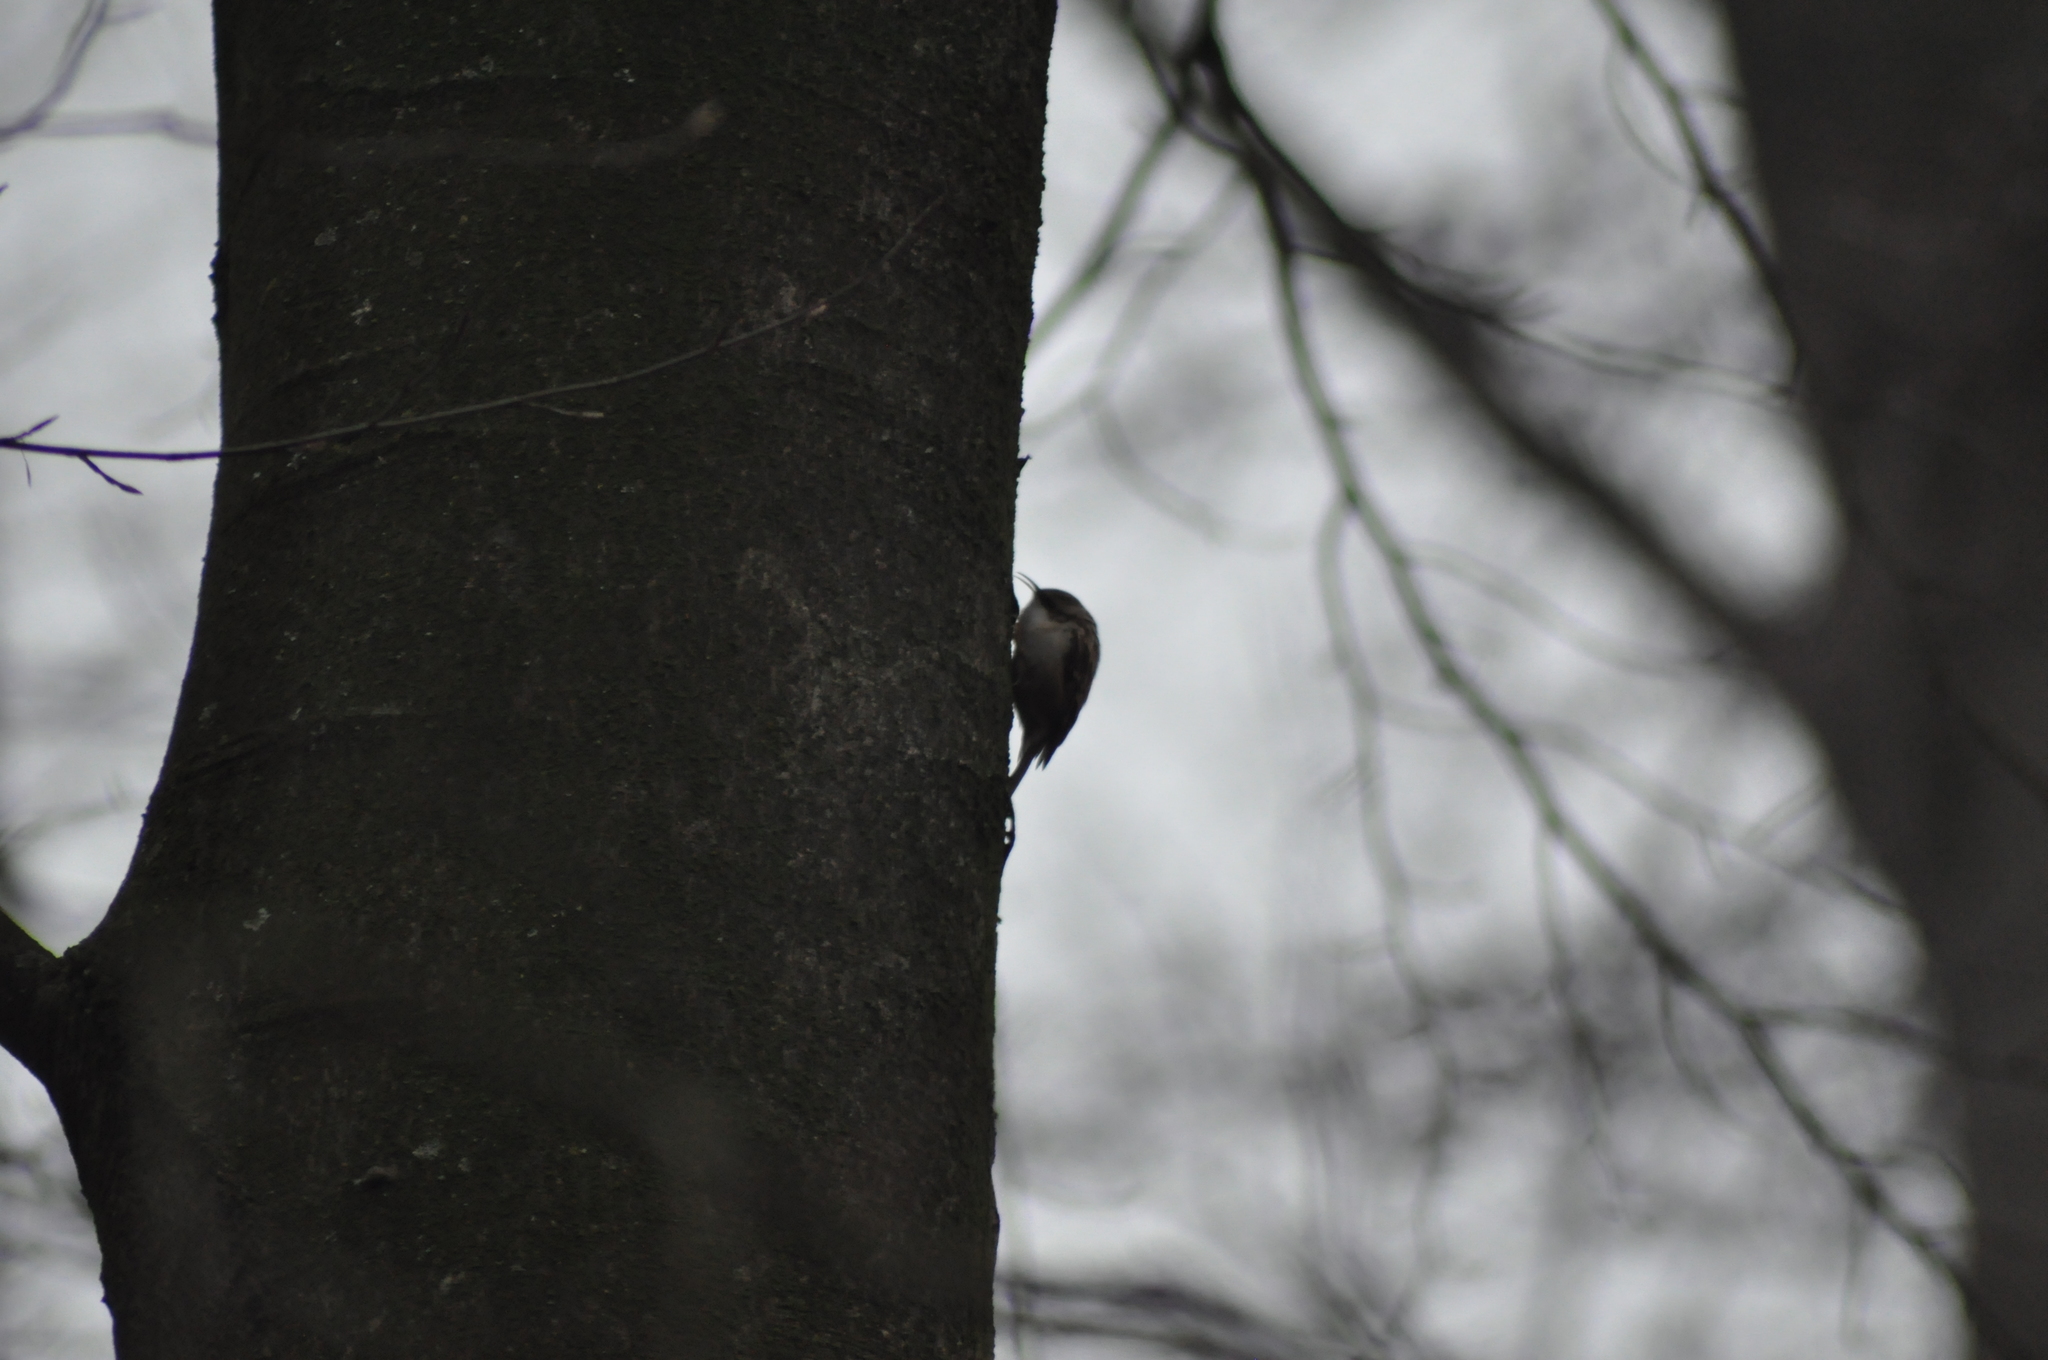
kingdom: Animalia
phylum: Chordata
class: Aves
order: Passeriformes
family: Certhiidae
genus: Certhia
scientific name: Certhia brachydactyla
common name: Short-toed treecreeper
